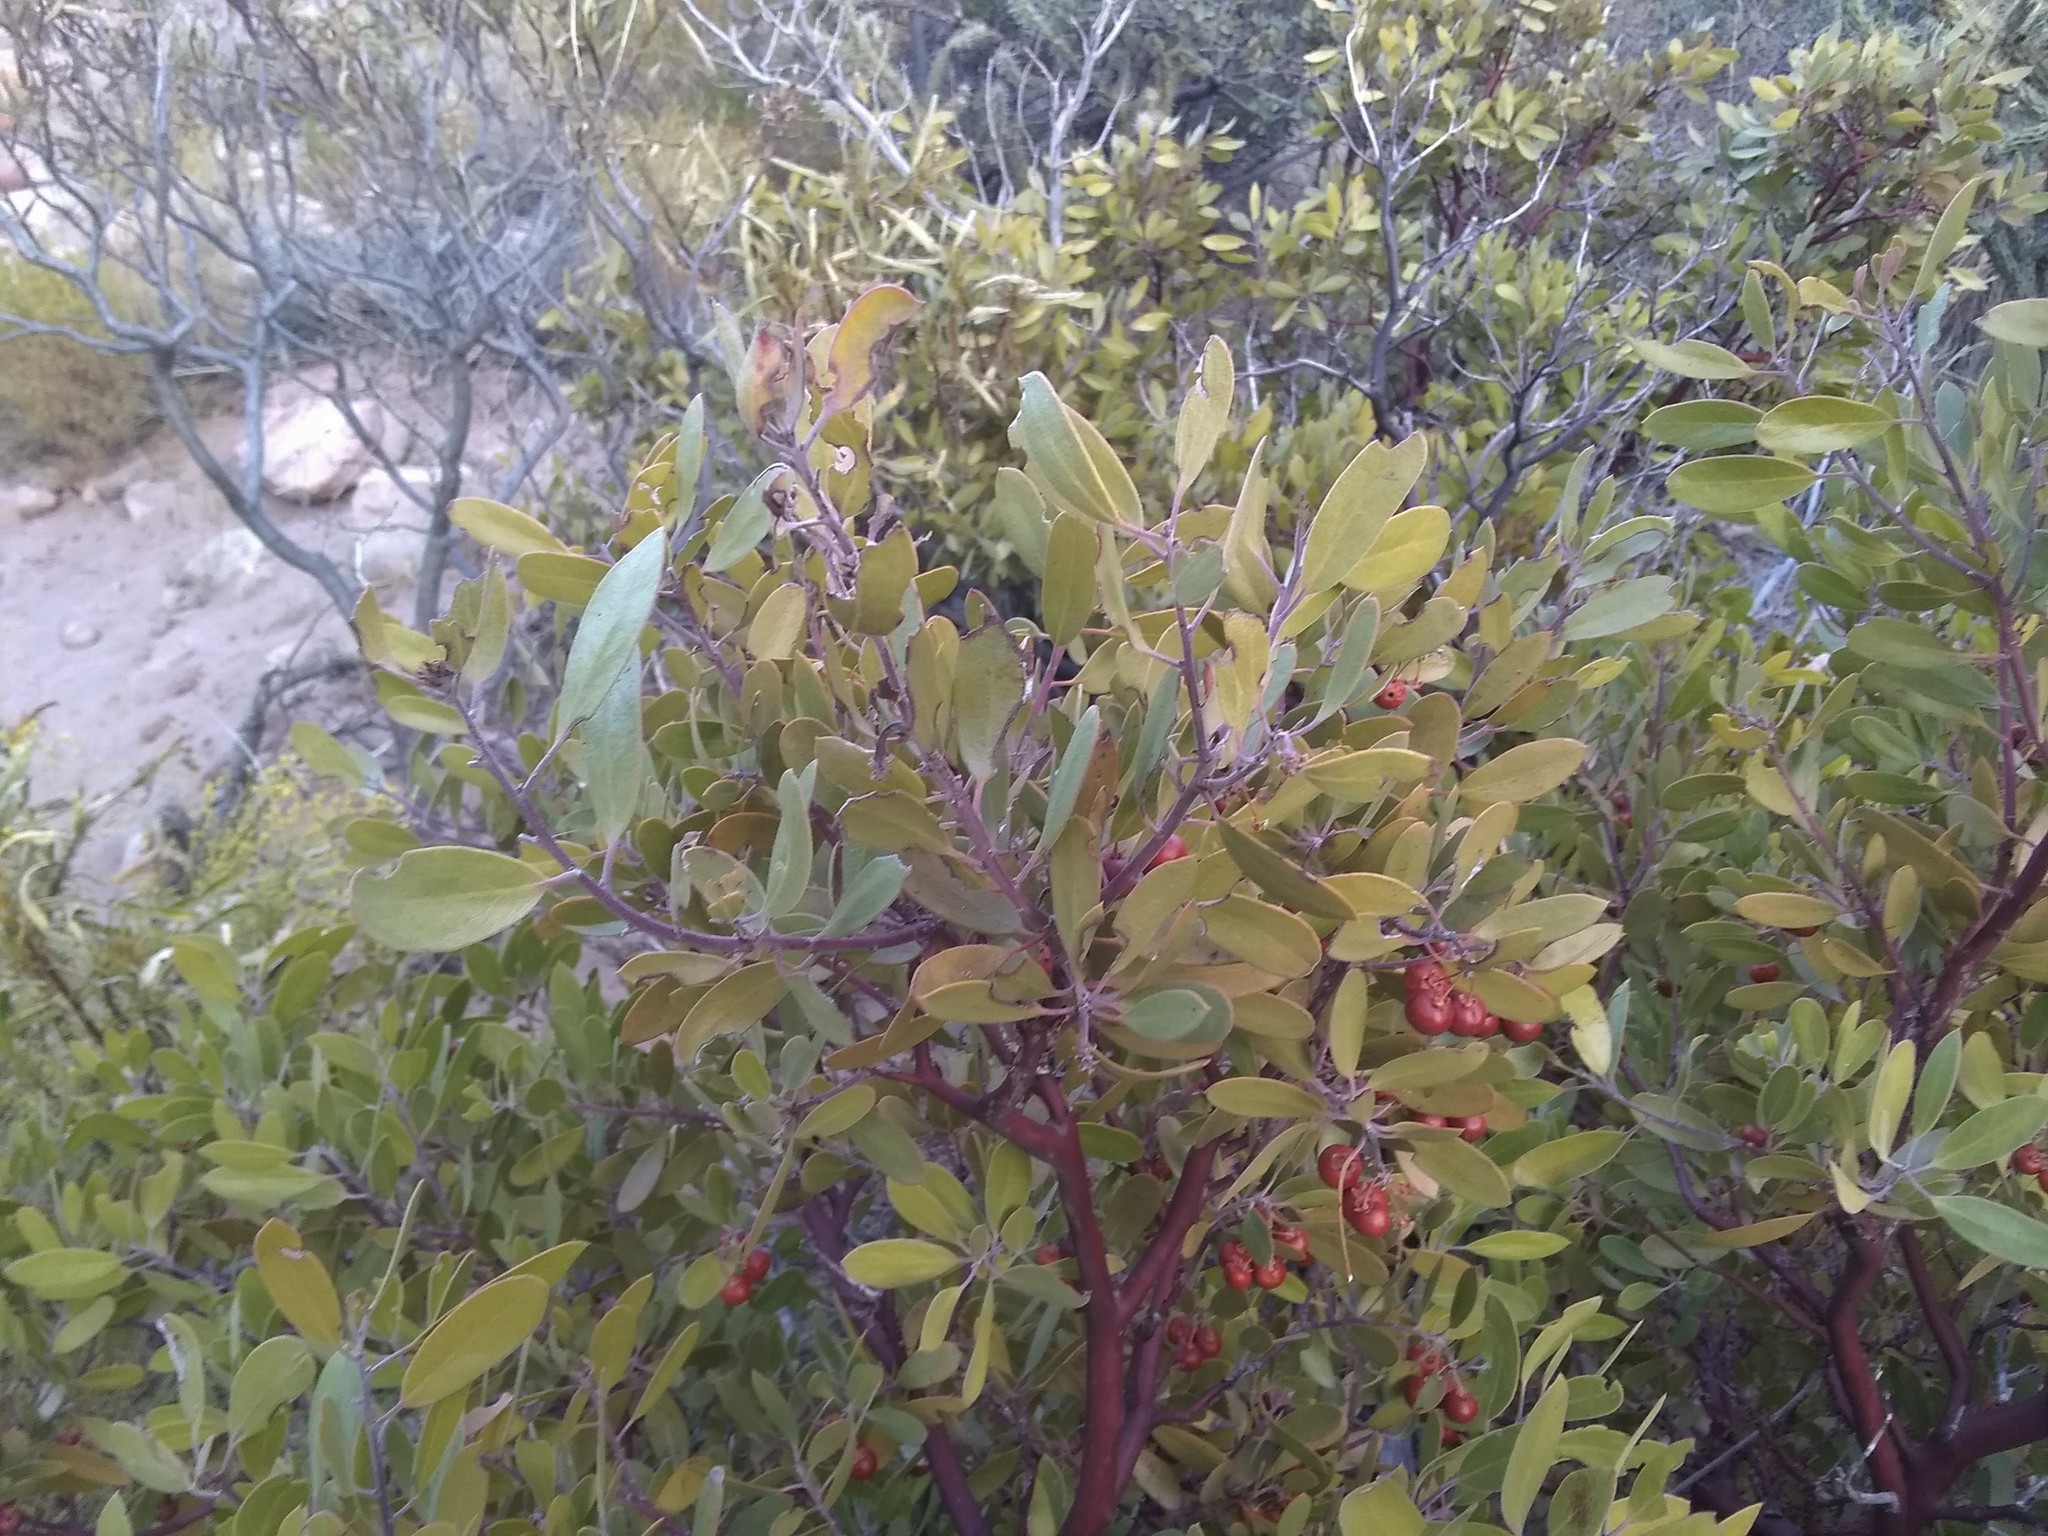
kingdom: Plantae
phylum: Tracheophyta
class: Magnoliopsida
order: Ericales
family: Ericaceae
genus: Arctostaphylos
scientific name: Arctostaphylos pungens
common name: Mexican manzanita
